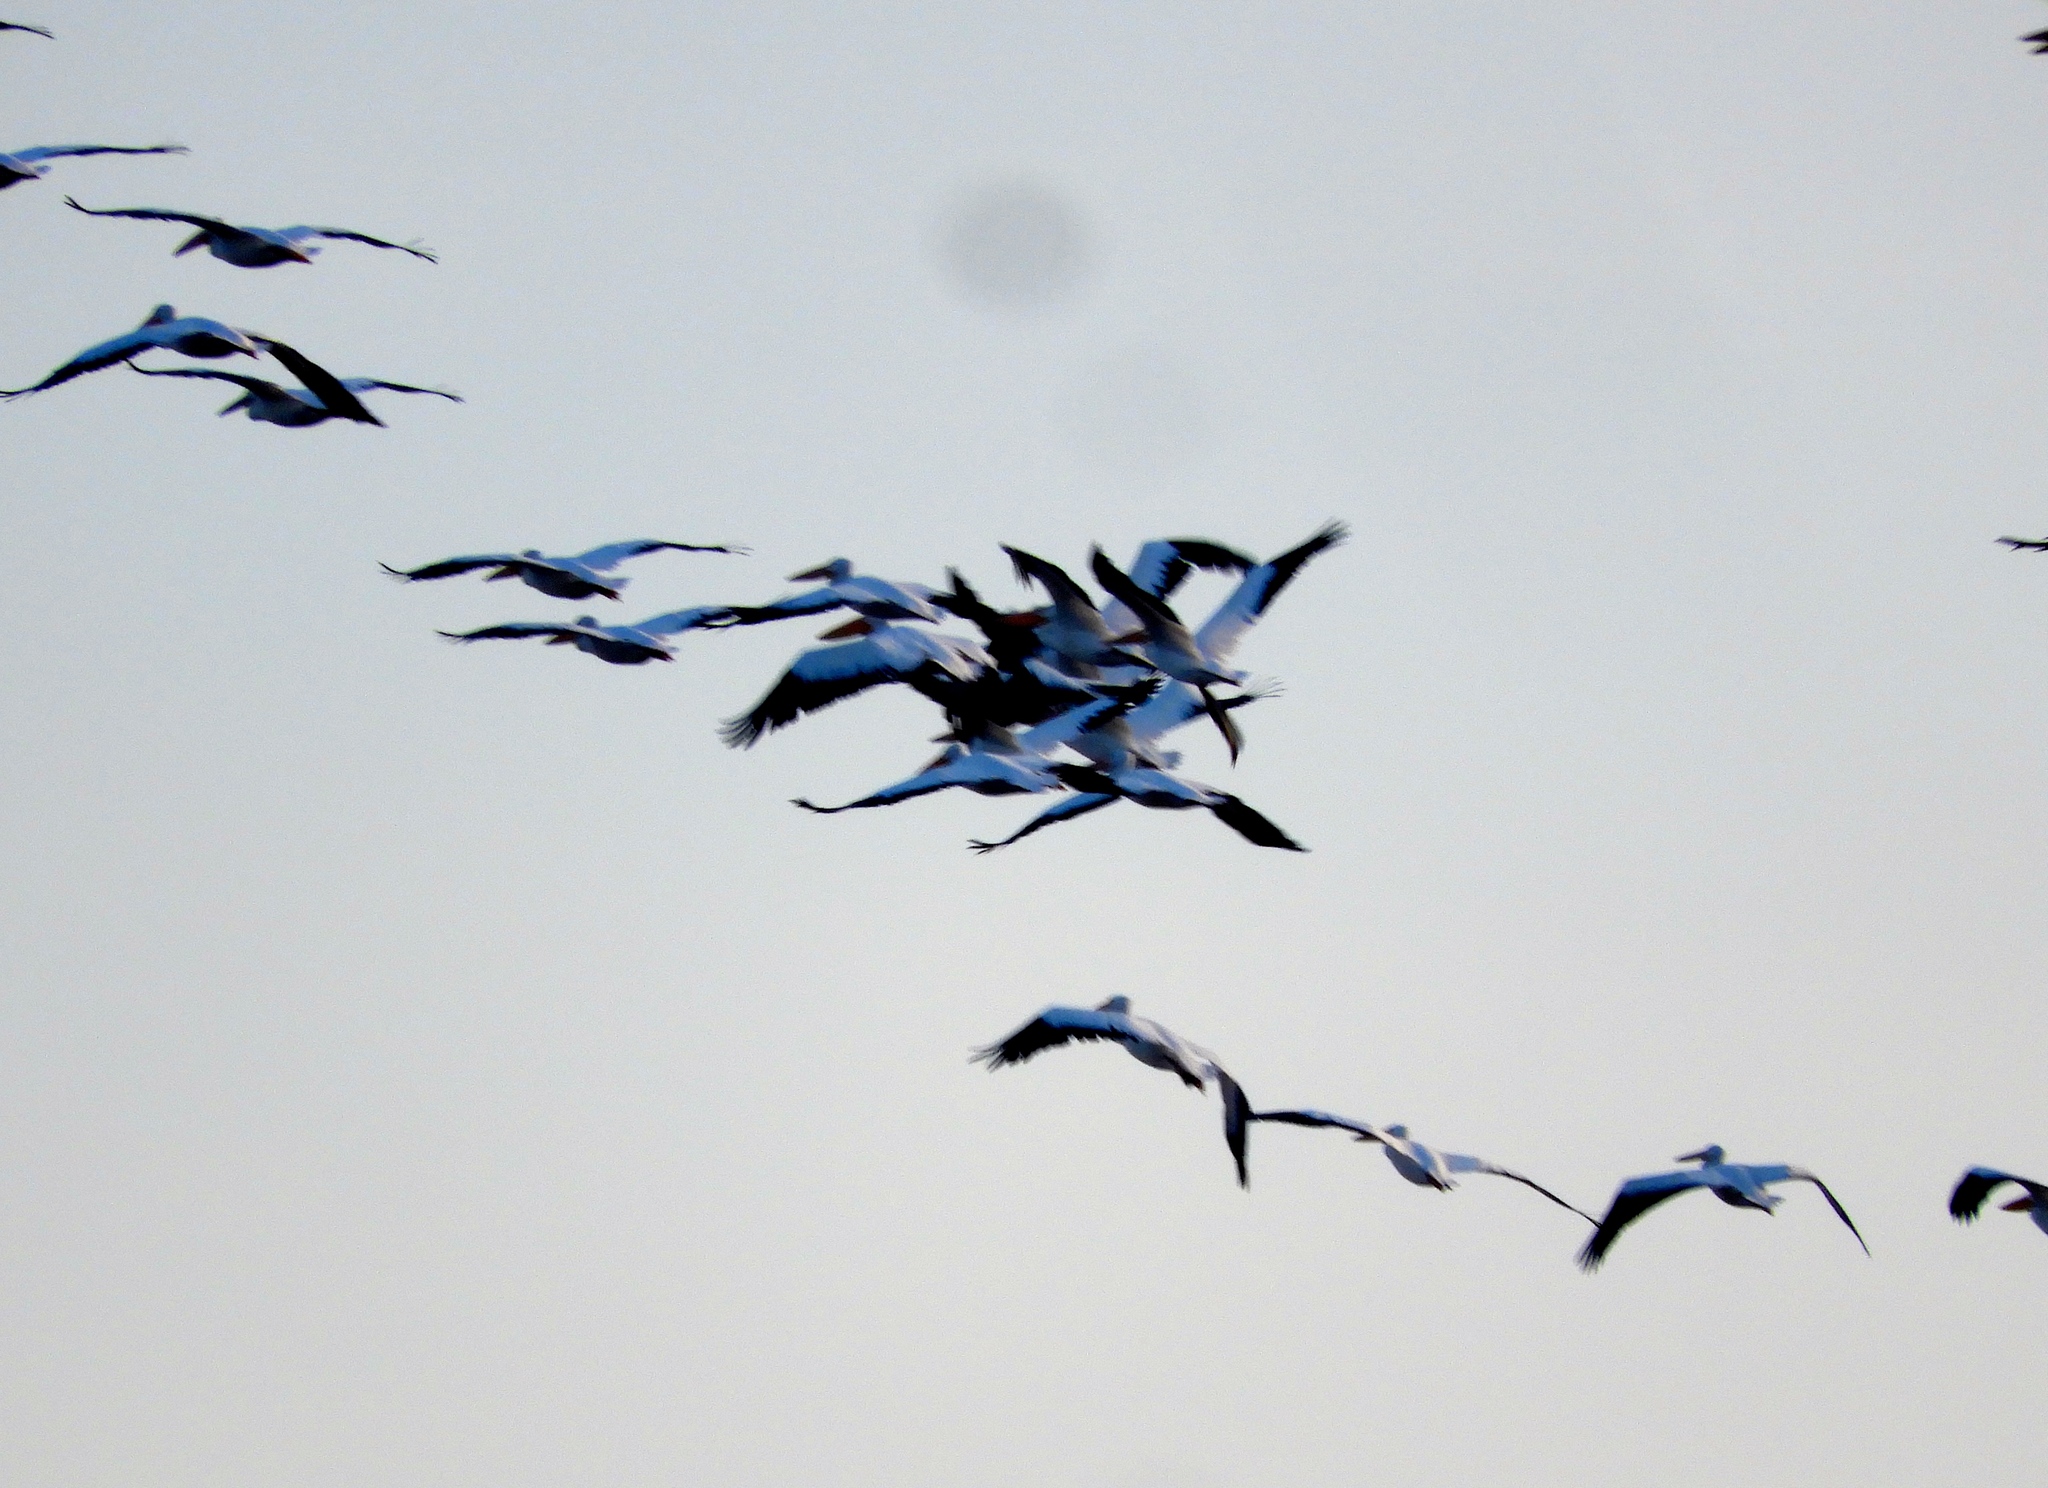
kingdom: Animalia
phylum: Chordata
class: Aves
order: Pelecaniformes
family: Pelecanidae
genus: Pelecanus
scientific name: Pelecanus erythrorhynchos
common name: American white pelican
